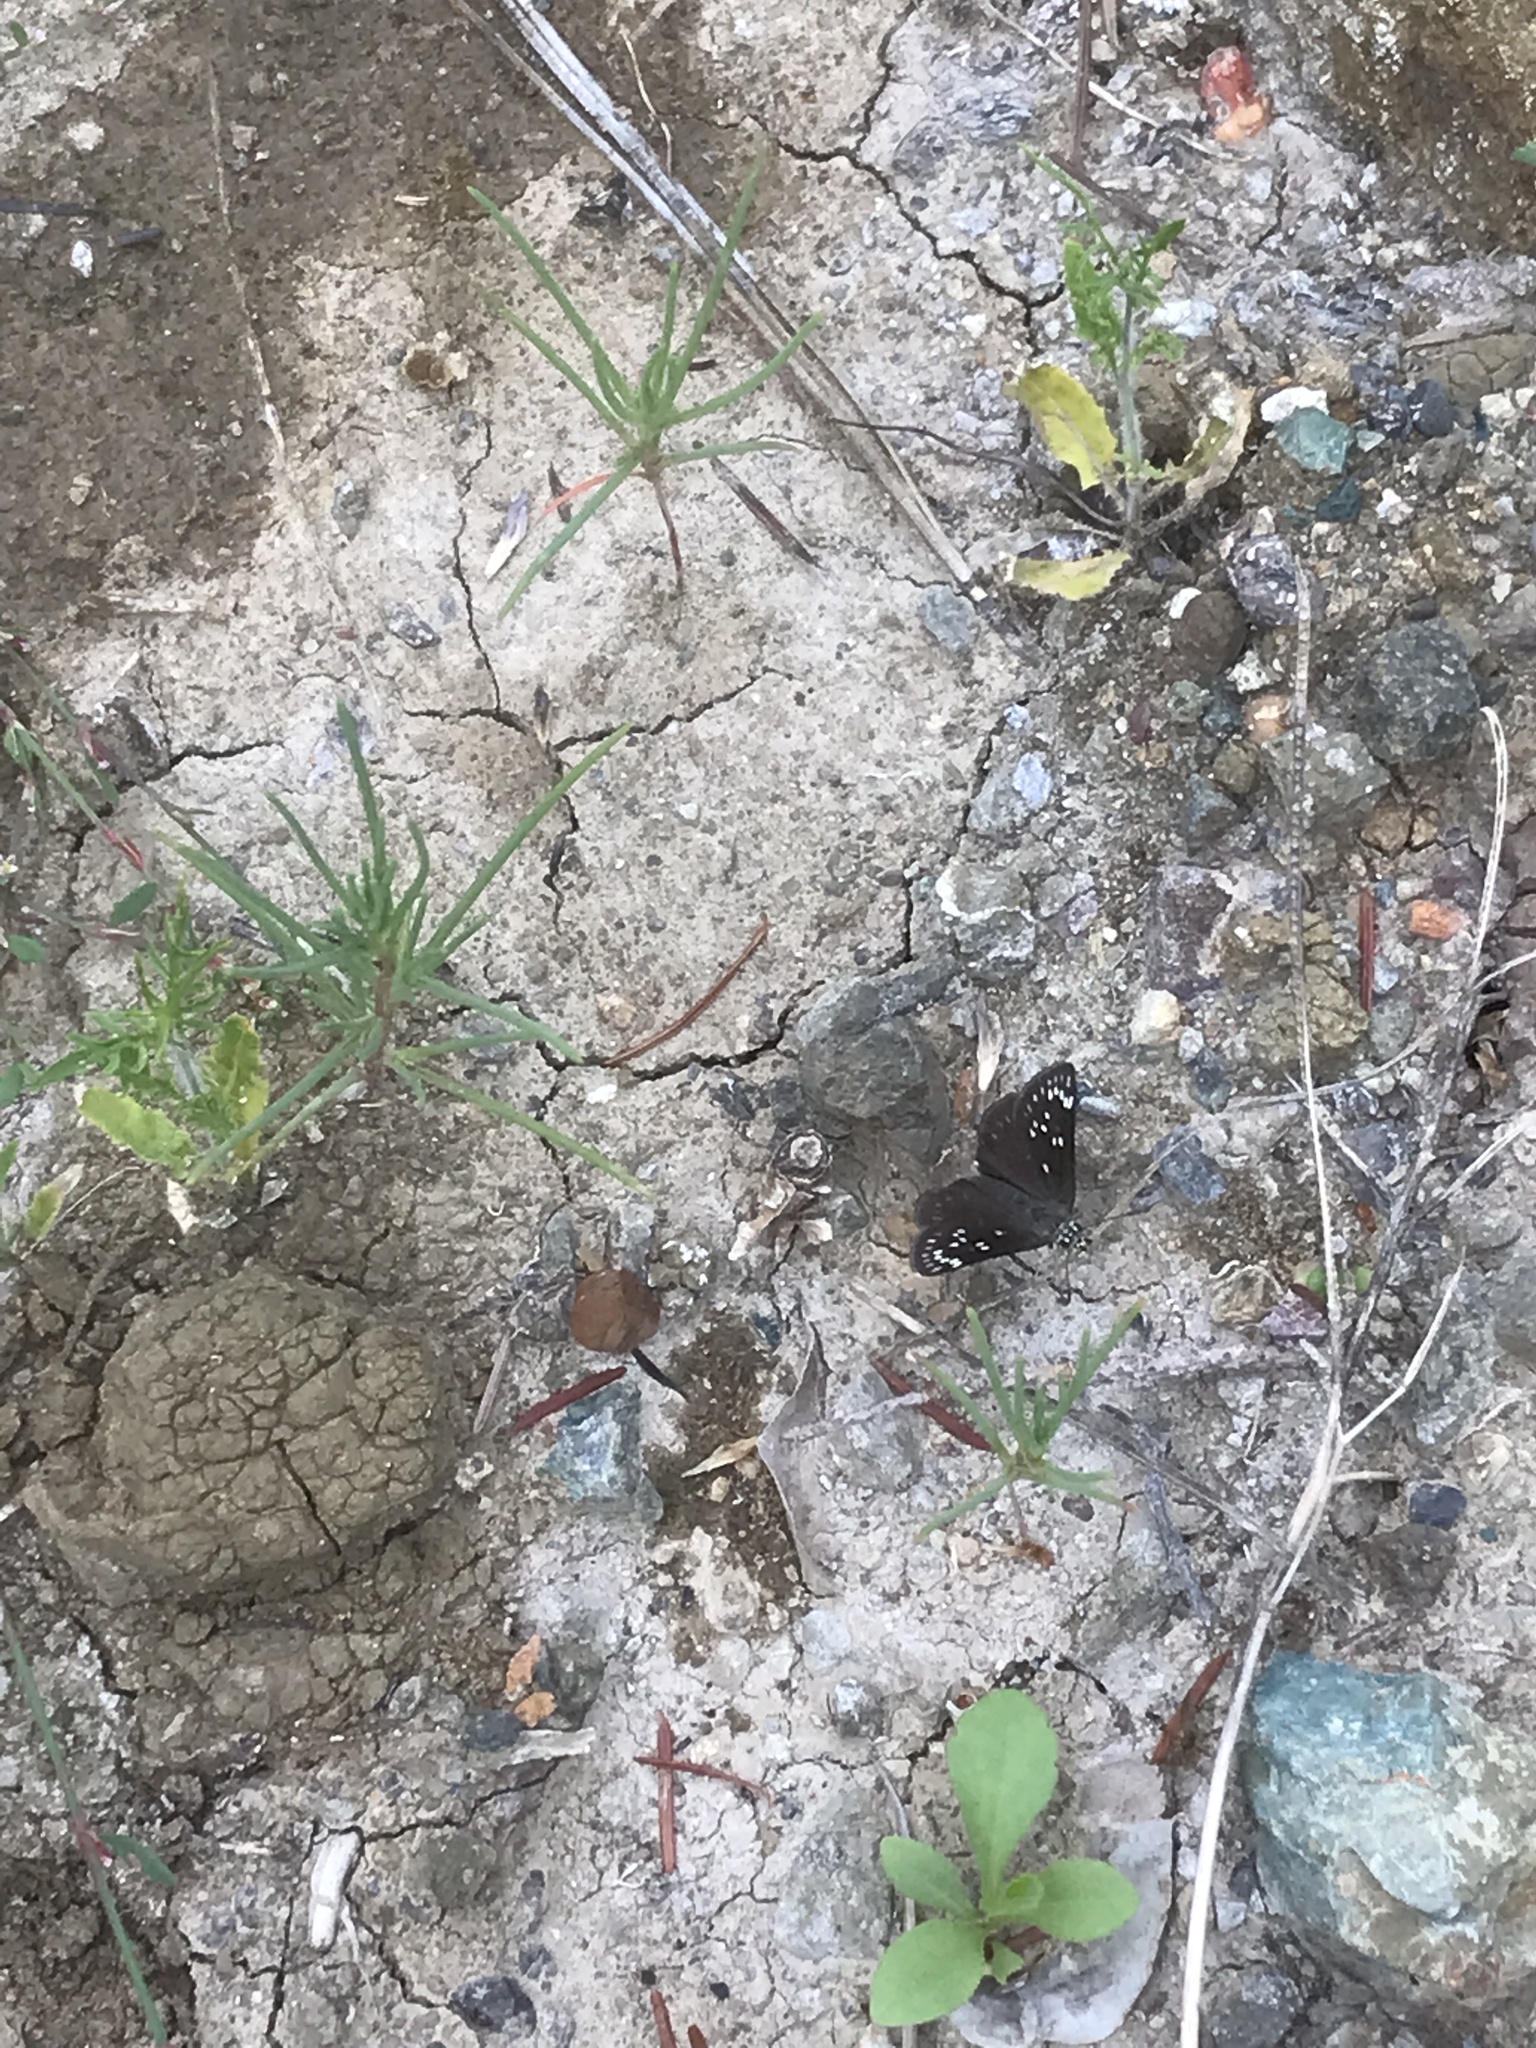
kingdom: Animalia
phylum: Arthropoda
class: Insecta
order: Lepidoptera
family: Hesperiidae
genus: Pholisora
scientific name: Pholisora catullus
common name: Common sootywing
